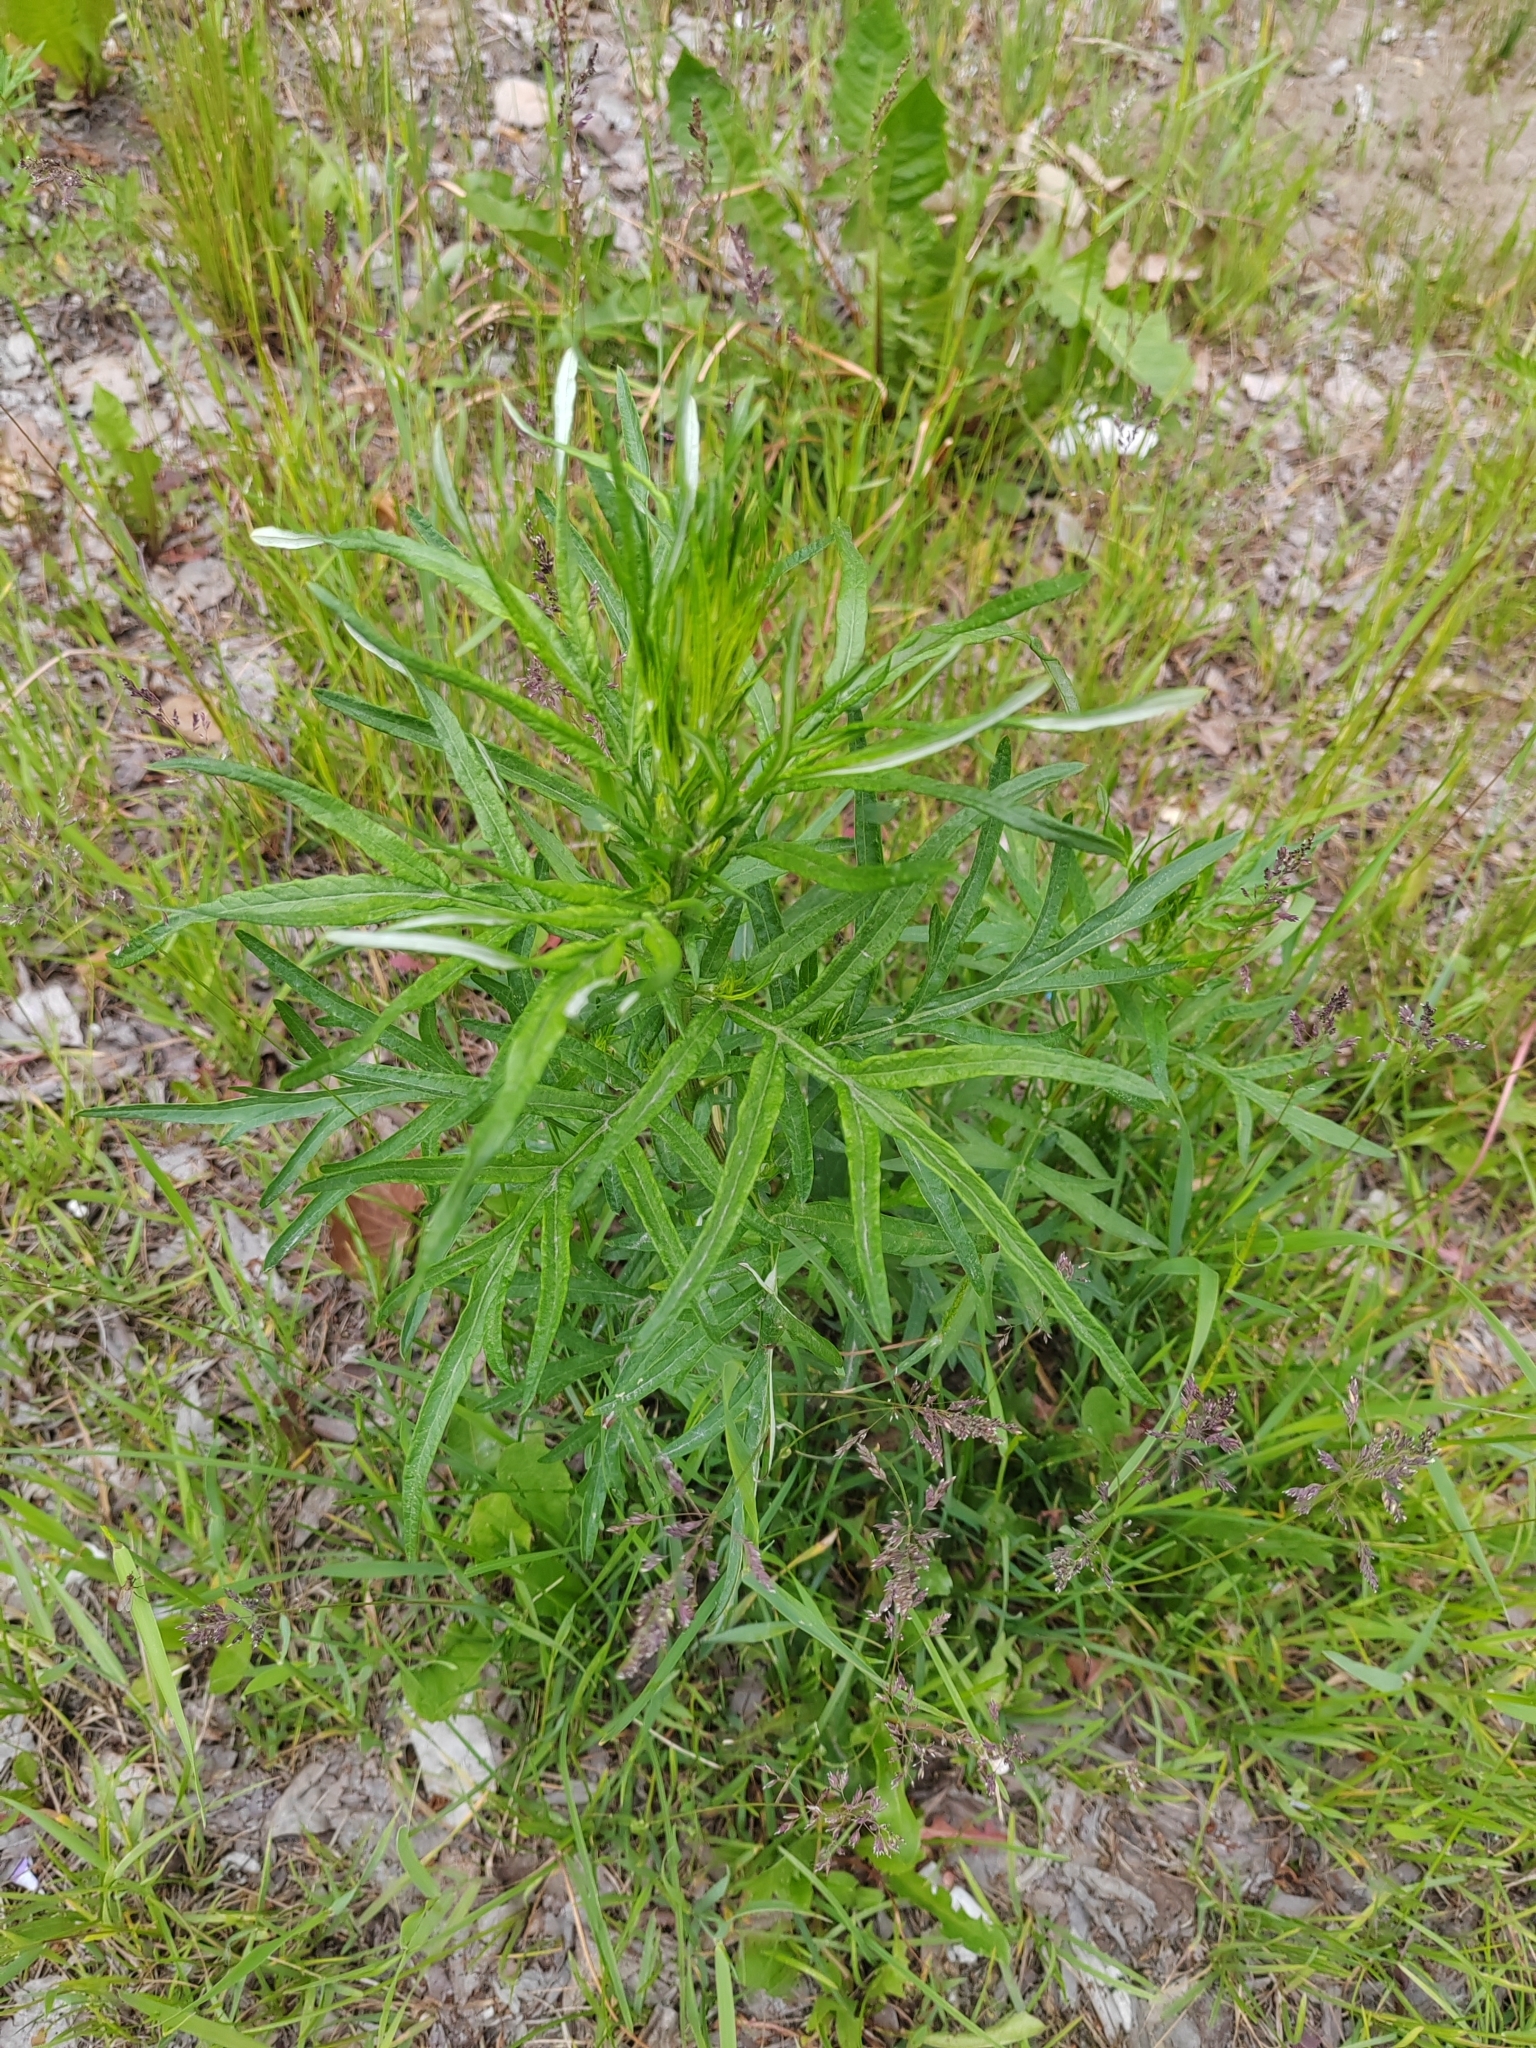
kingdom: Plantae
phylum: Tracheophyta
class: Magnoliopsida
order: Asterales
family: Asteraceae
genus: Artemisia
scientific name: Artemisia vulgaris
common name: Mugwort
